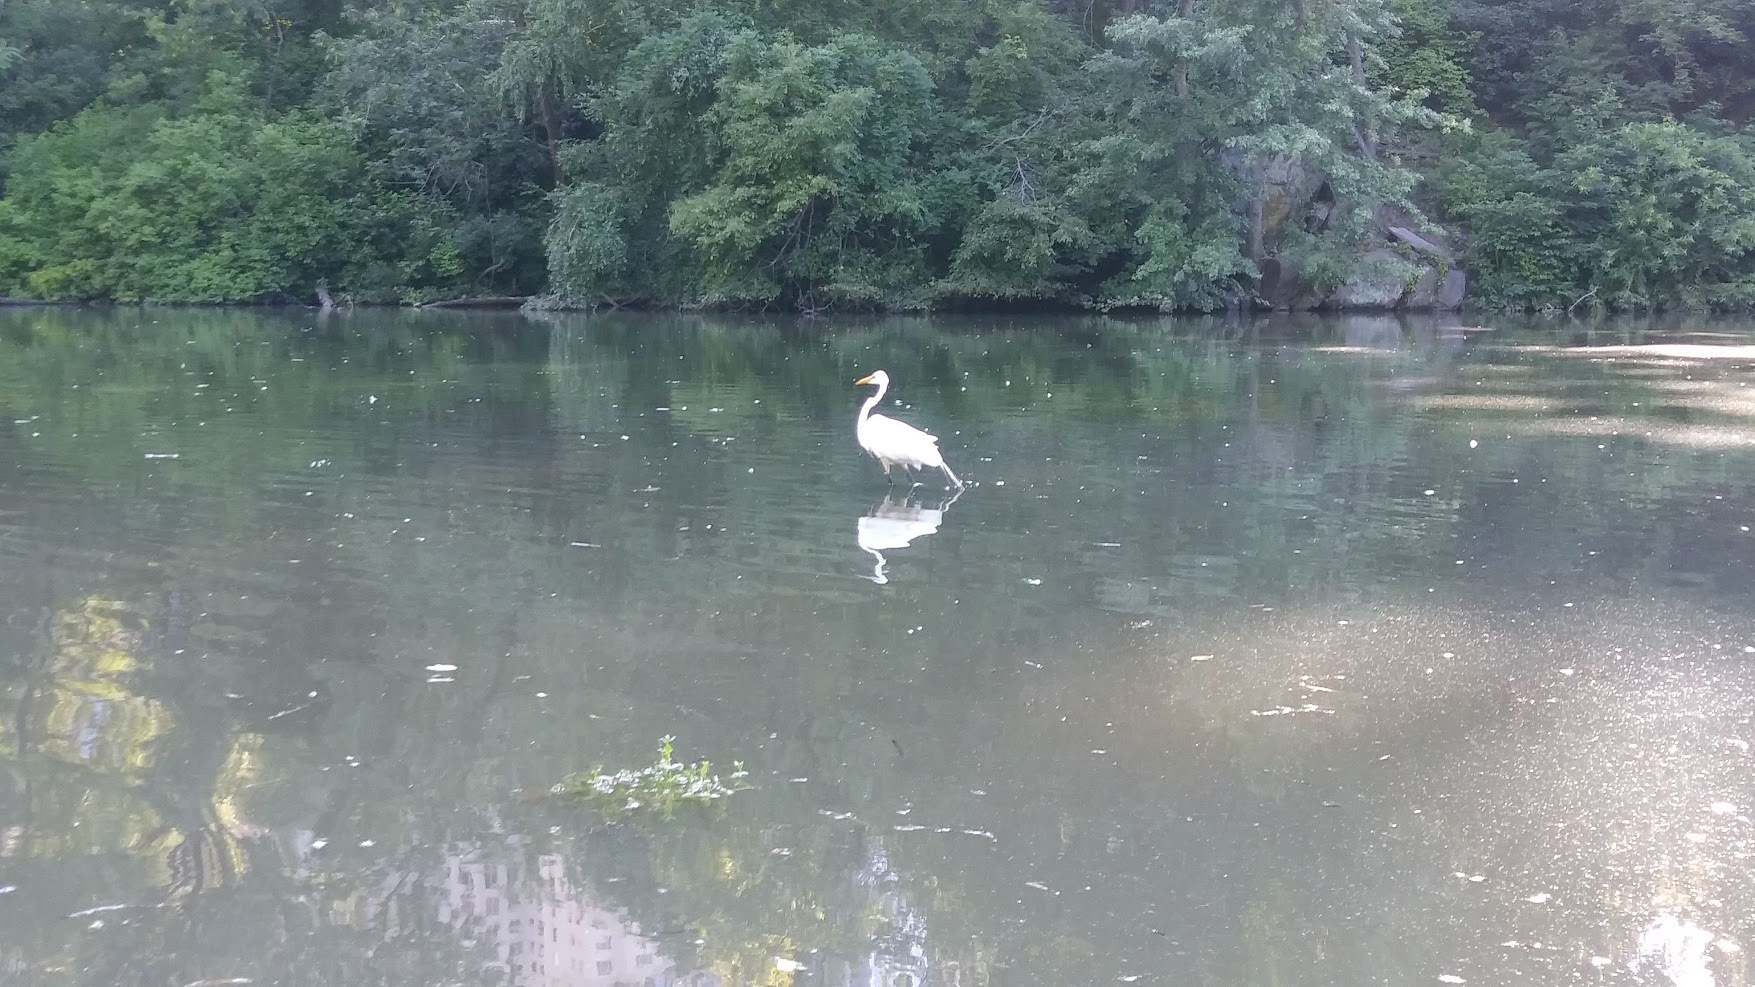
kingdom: Animalia
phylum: Chordata
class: Aves
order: Pelecaniformes
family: Ardeidae
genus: Ardea
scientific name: Ardea alba
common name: Great egret
